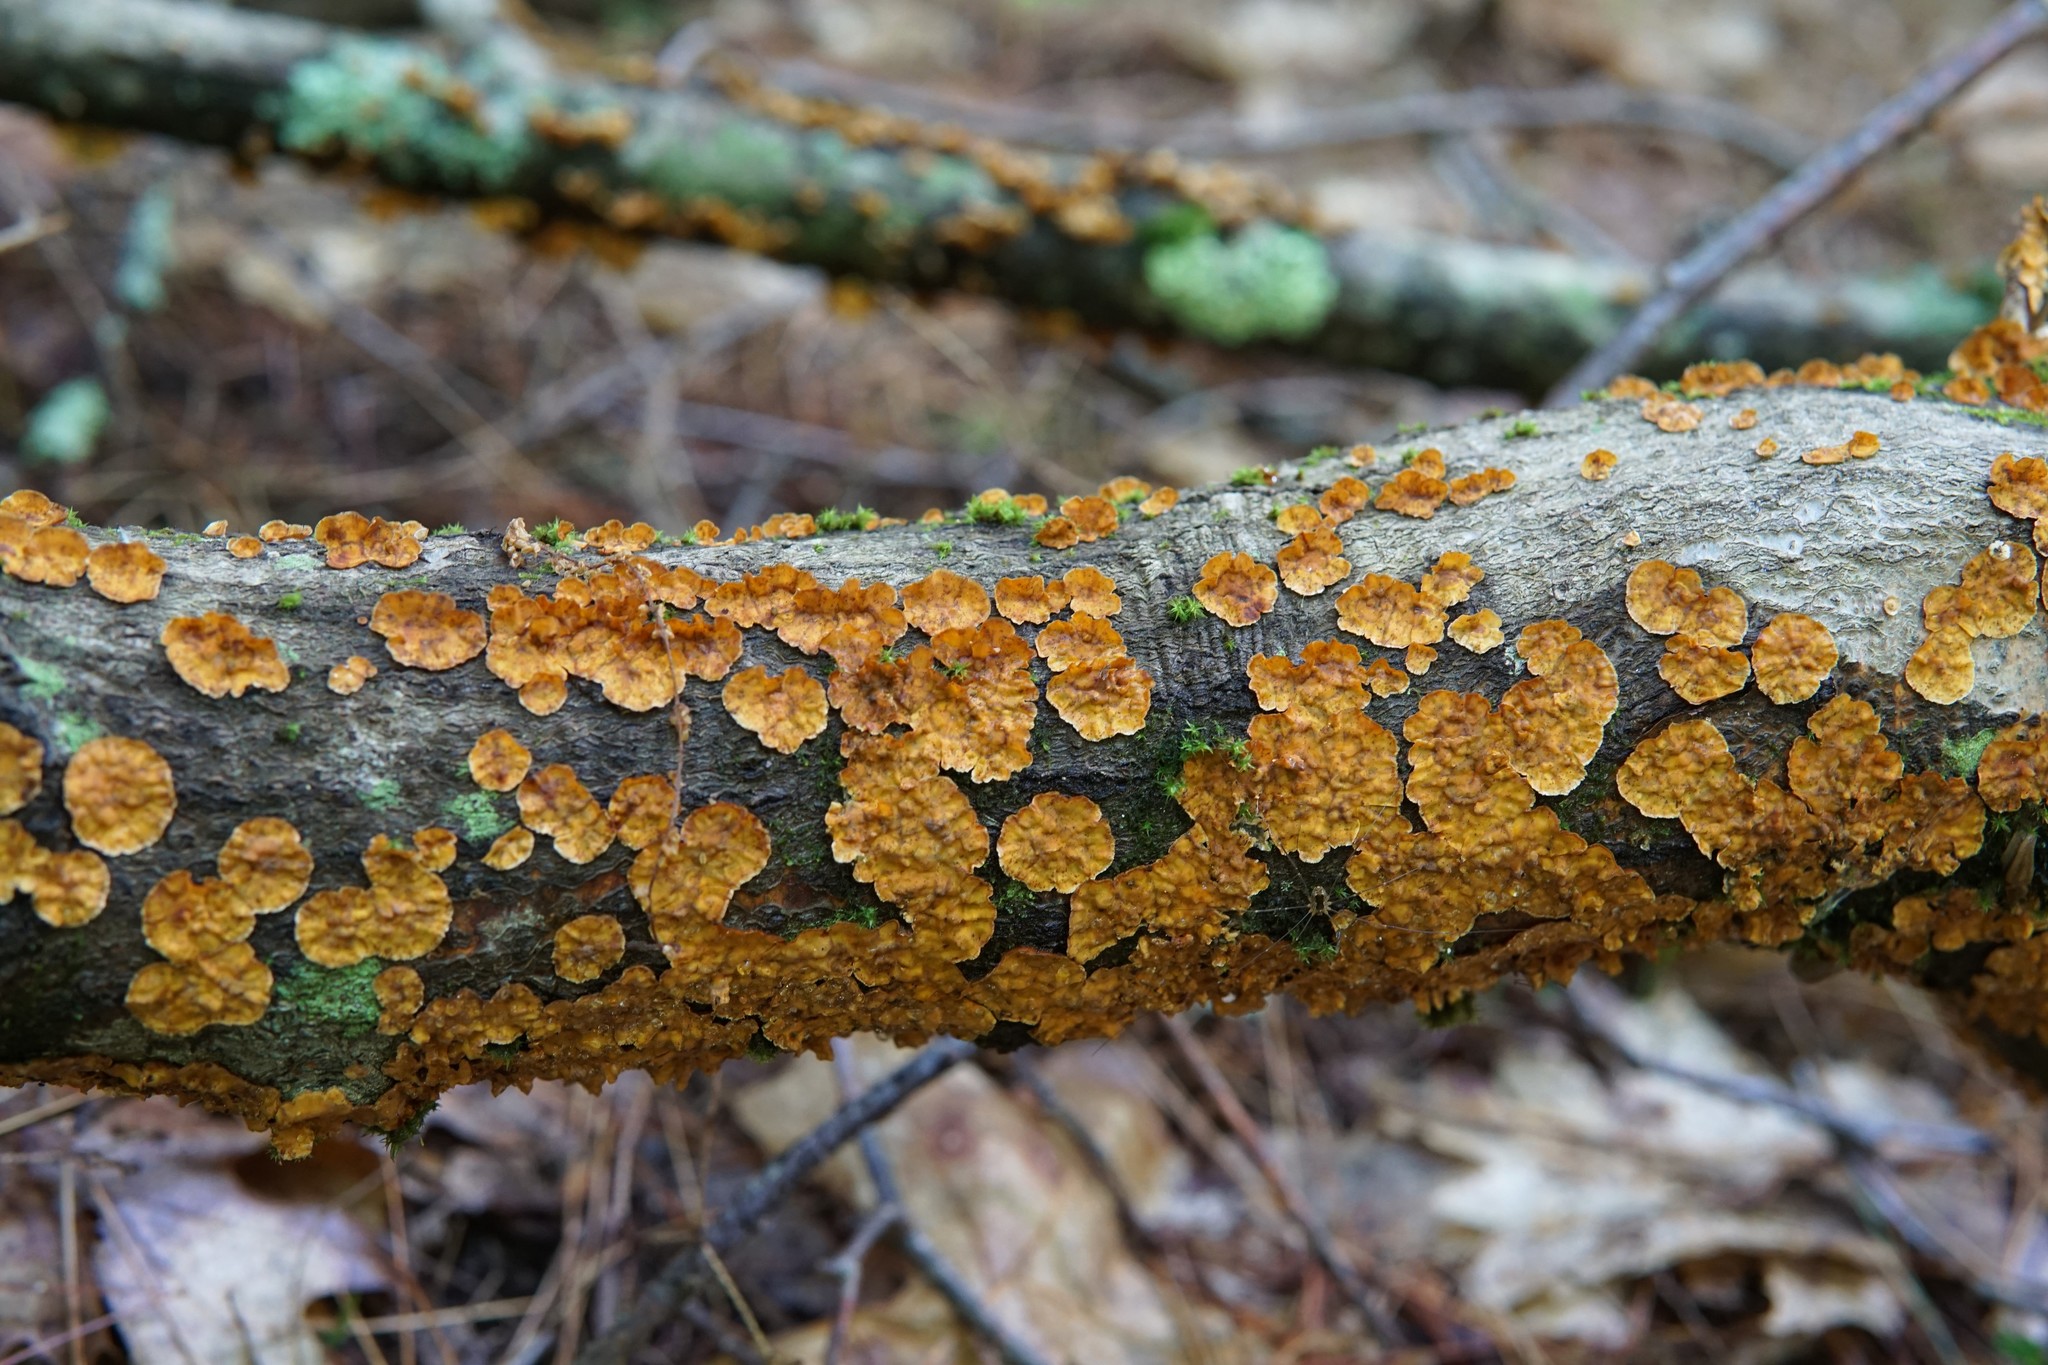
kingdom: Fungi
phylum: Basidiomycota
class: Agaricomycetes
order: Russulales
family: Stereaceae
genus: Stereum
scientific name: Stereum complicatum
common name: Crowded parchment
